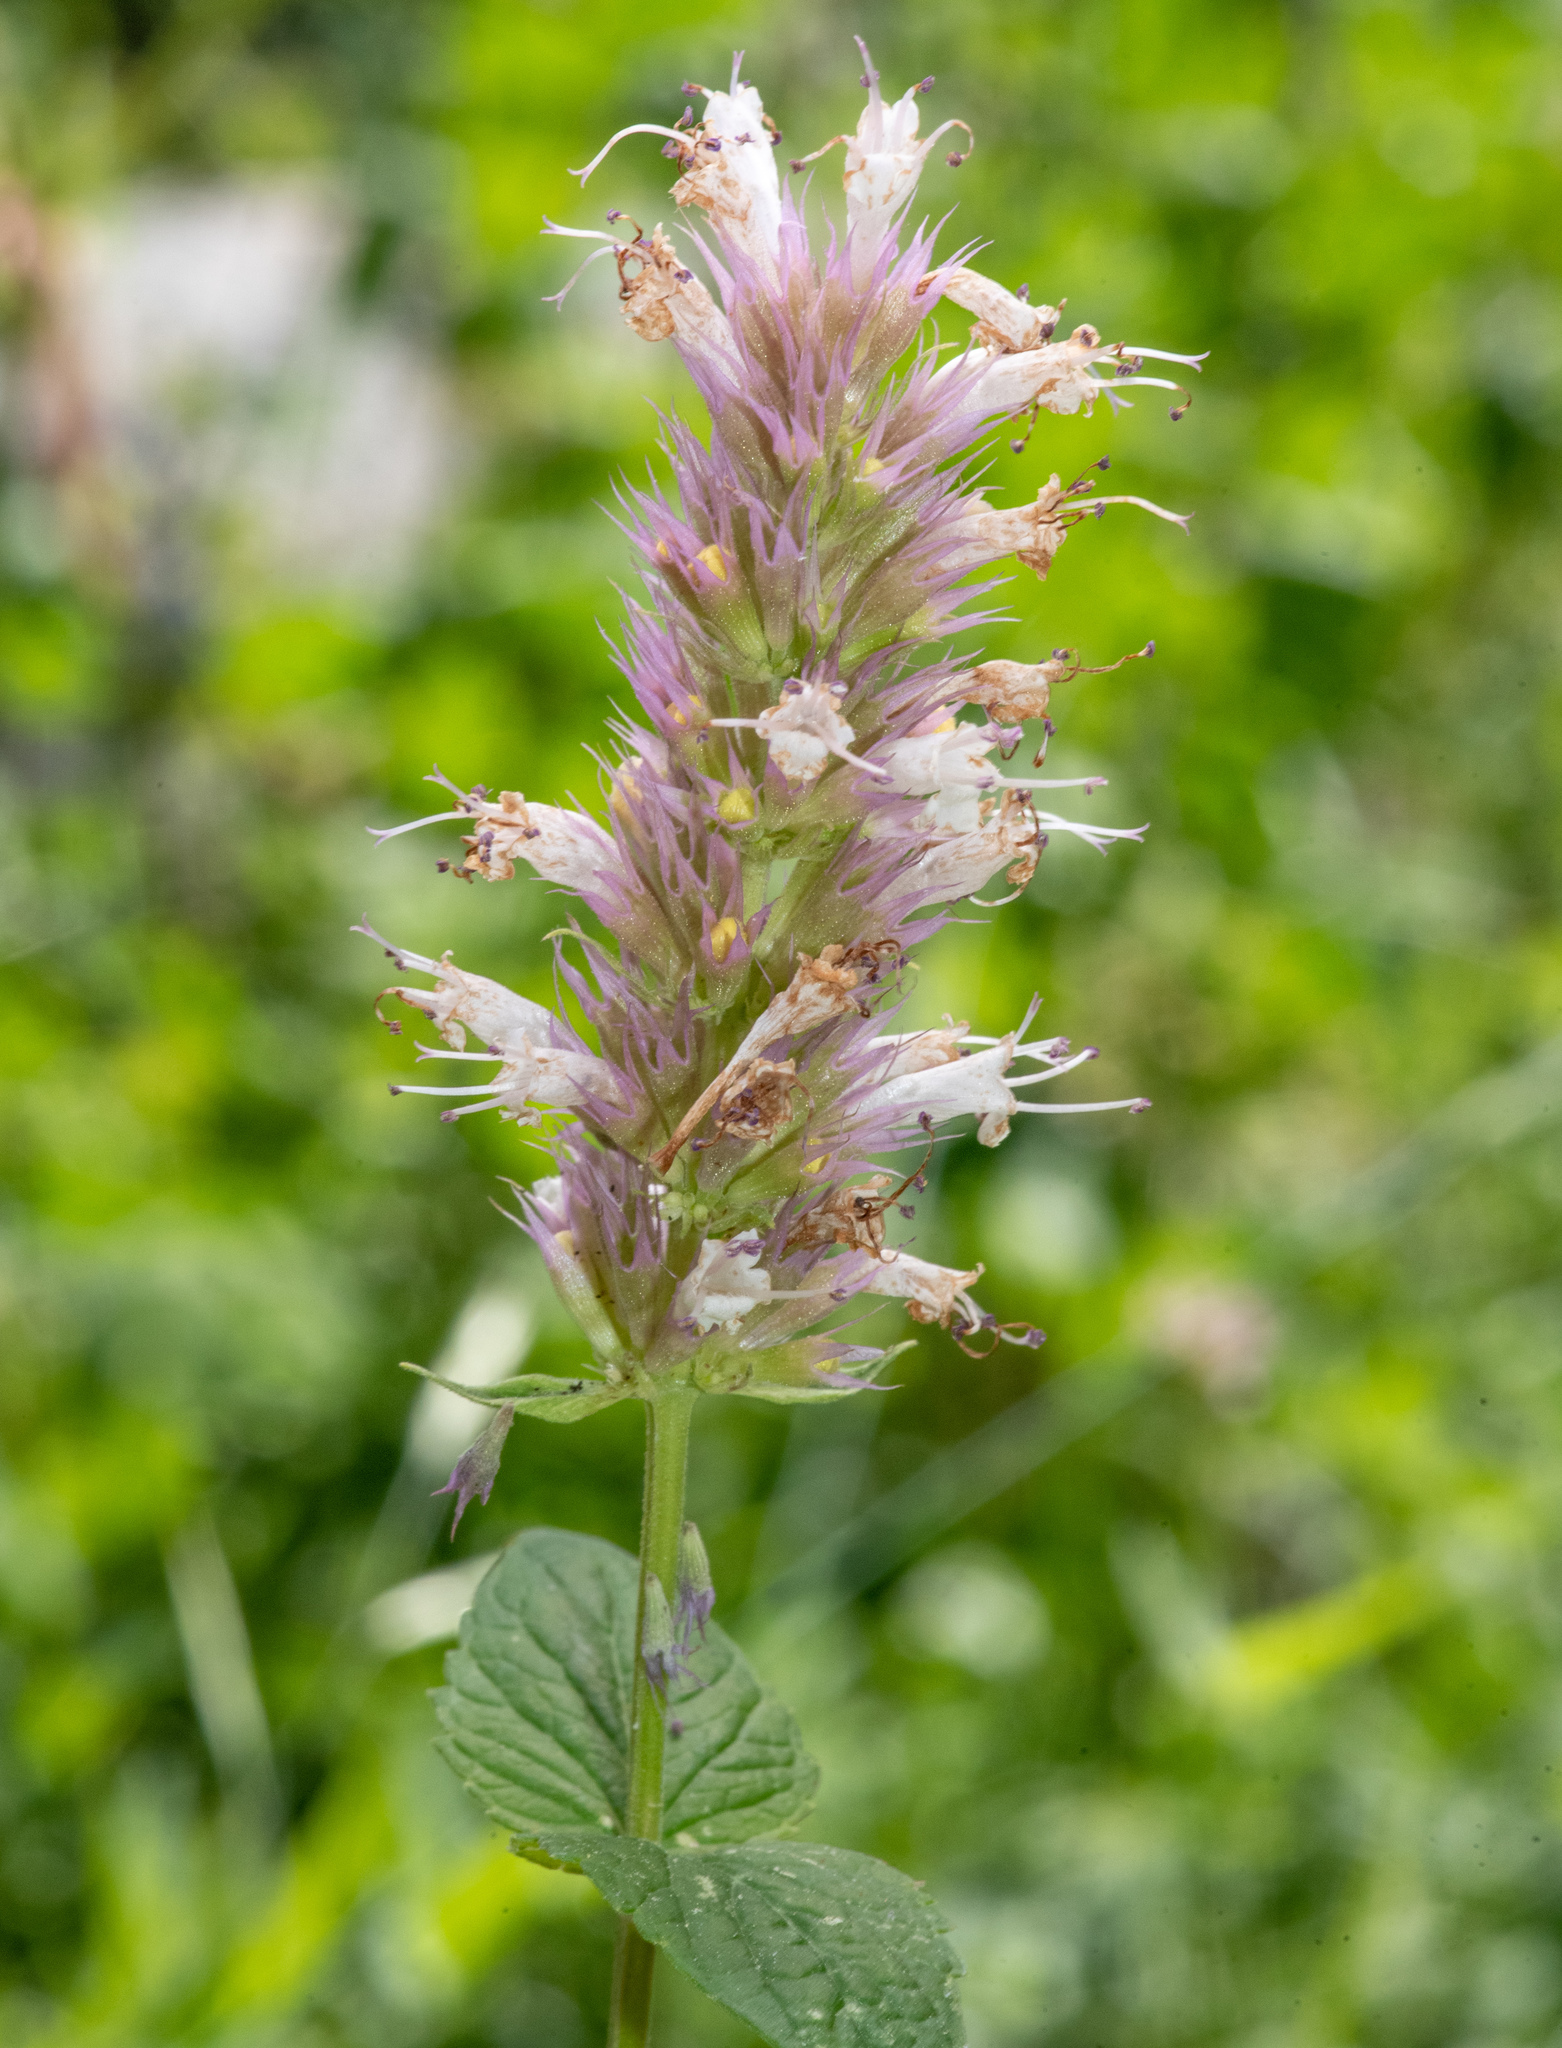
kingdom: Plantae
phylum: Tracheophyta
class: Magnoliopsida
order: Lamiales
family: Lamiaceae
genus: Agastache
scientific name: Agastache urticifolia
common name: Horsemint giant hyssop
